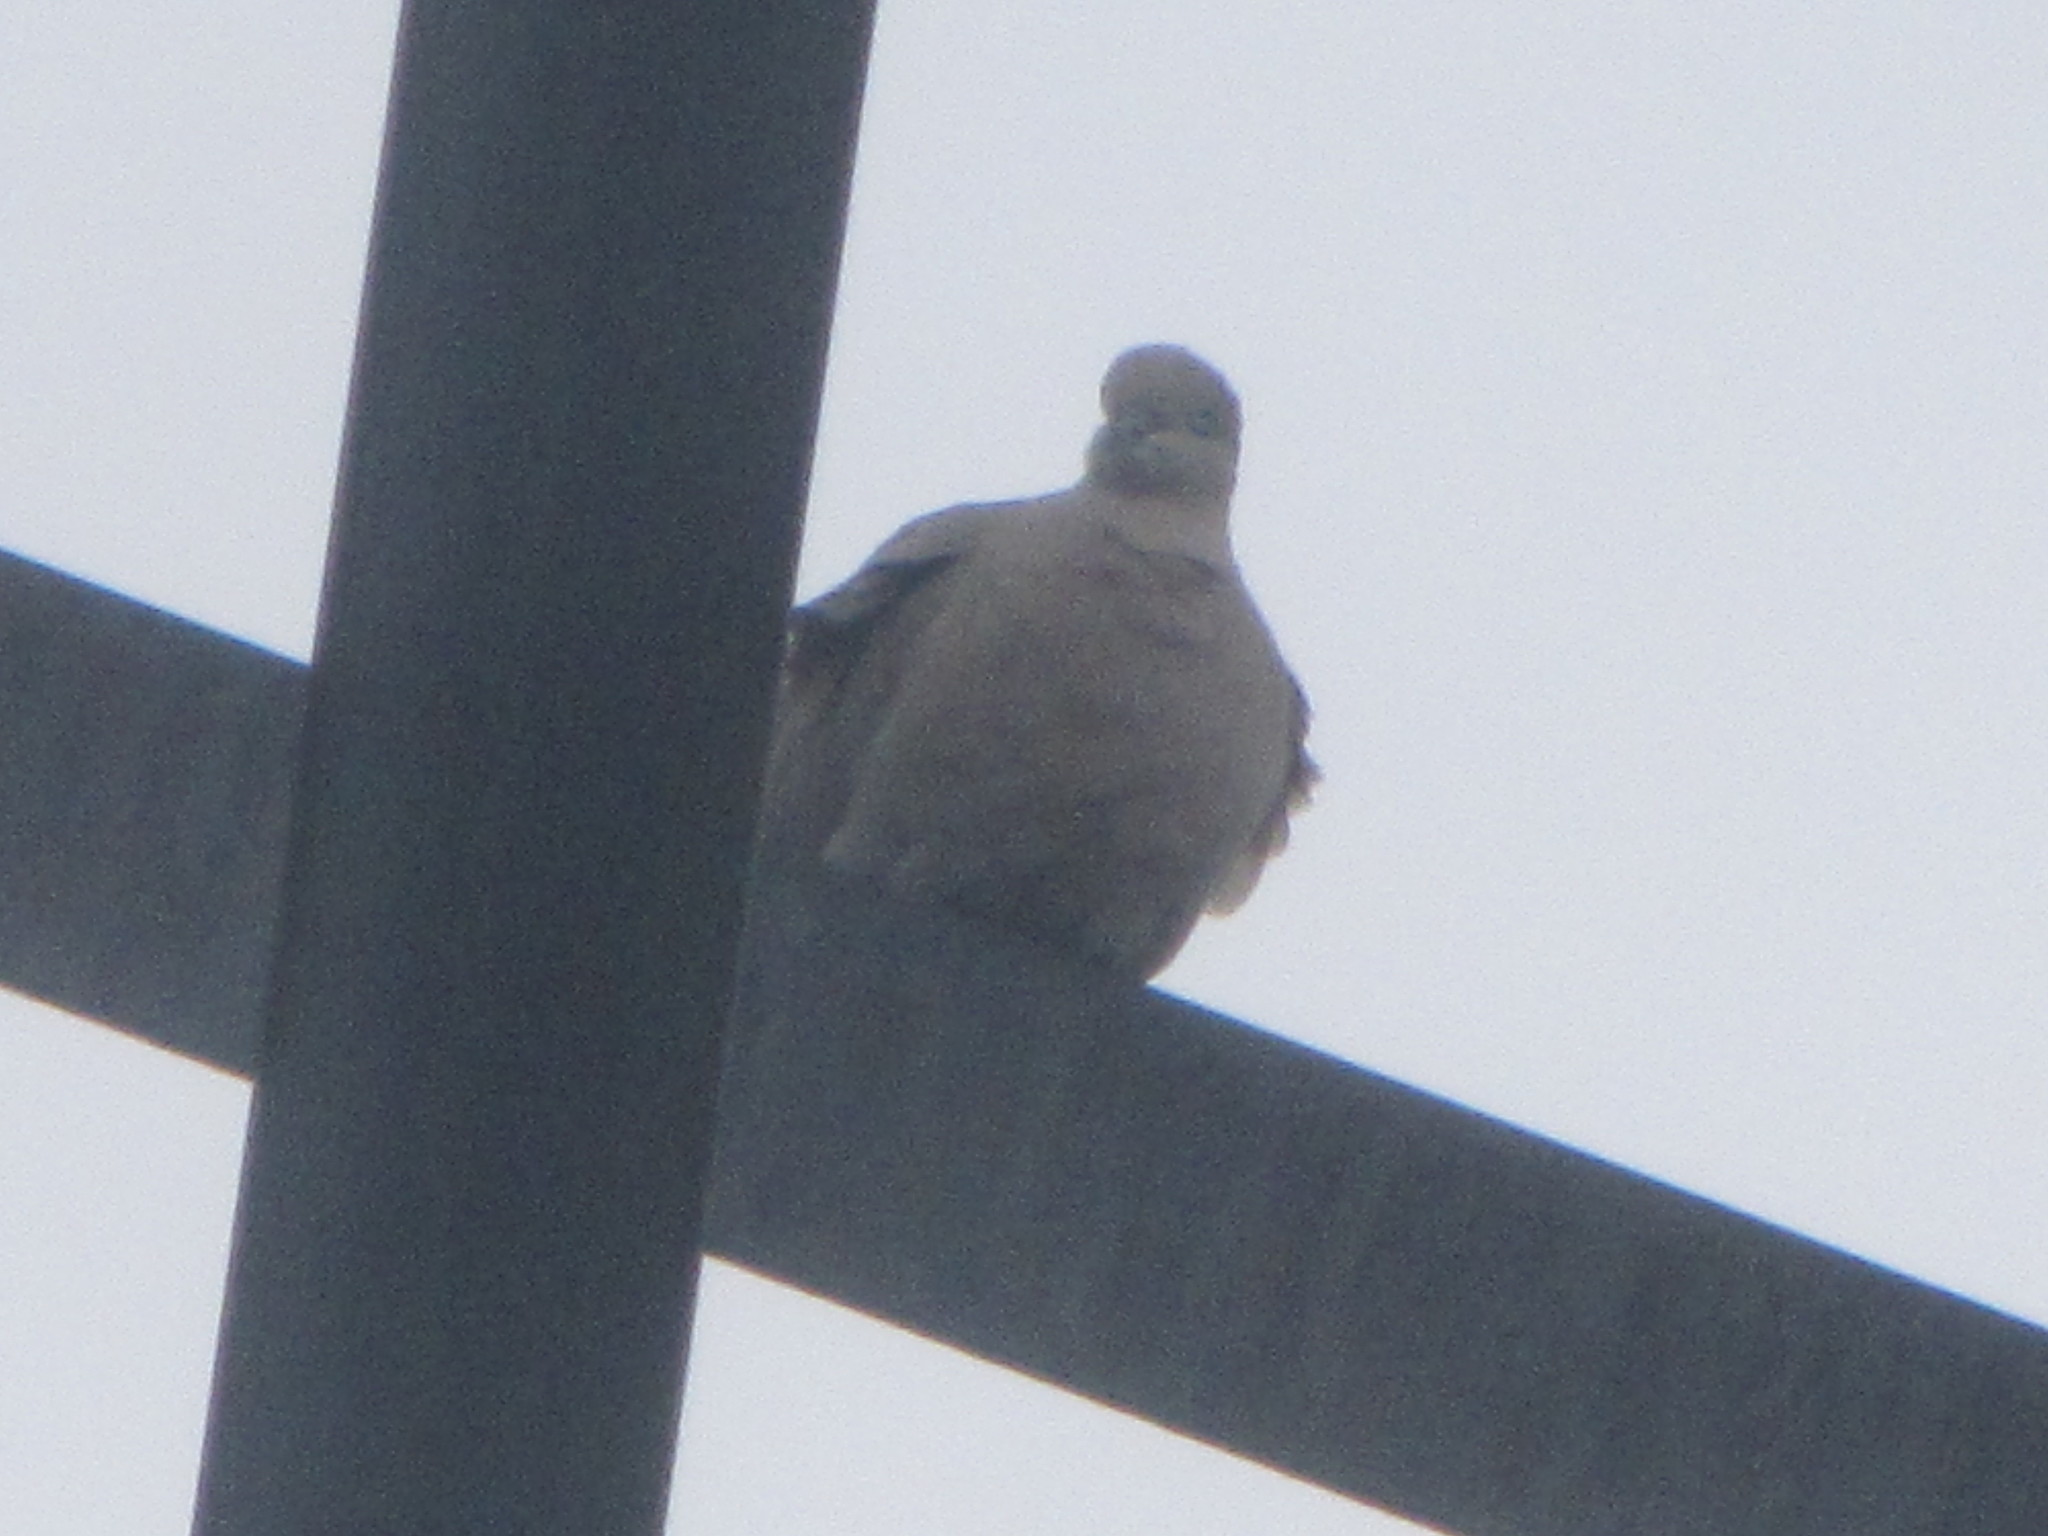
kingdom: Animalia
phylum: Chordata
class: Aves
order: Columbiformes
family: Columbidae
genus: Zenaida
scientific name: Zenaida macroura
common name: Mourning dove
